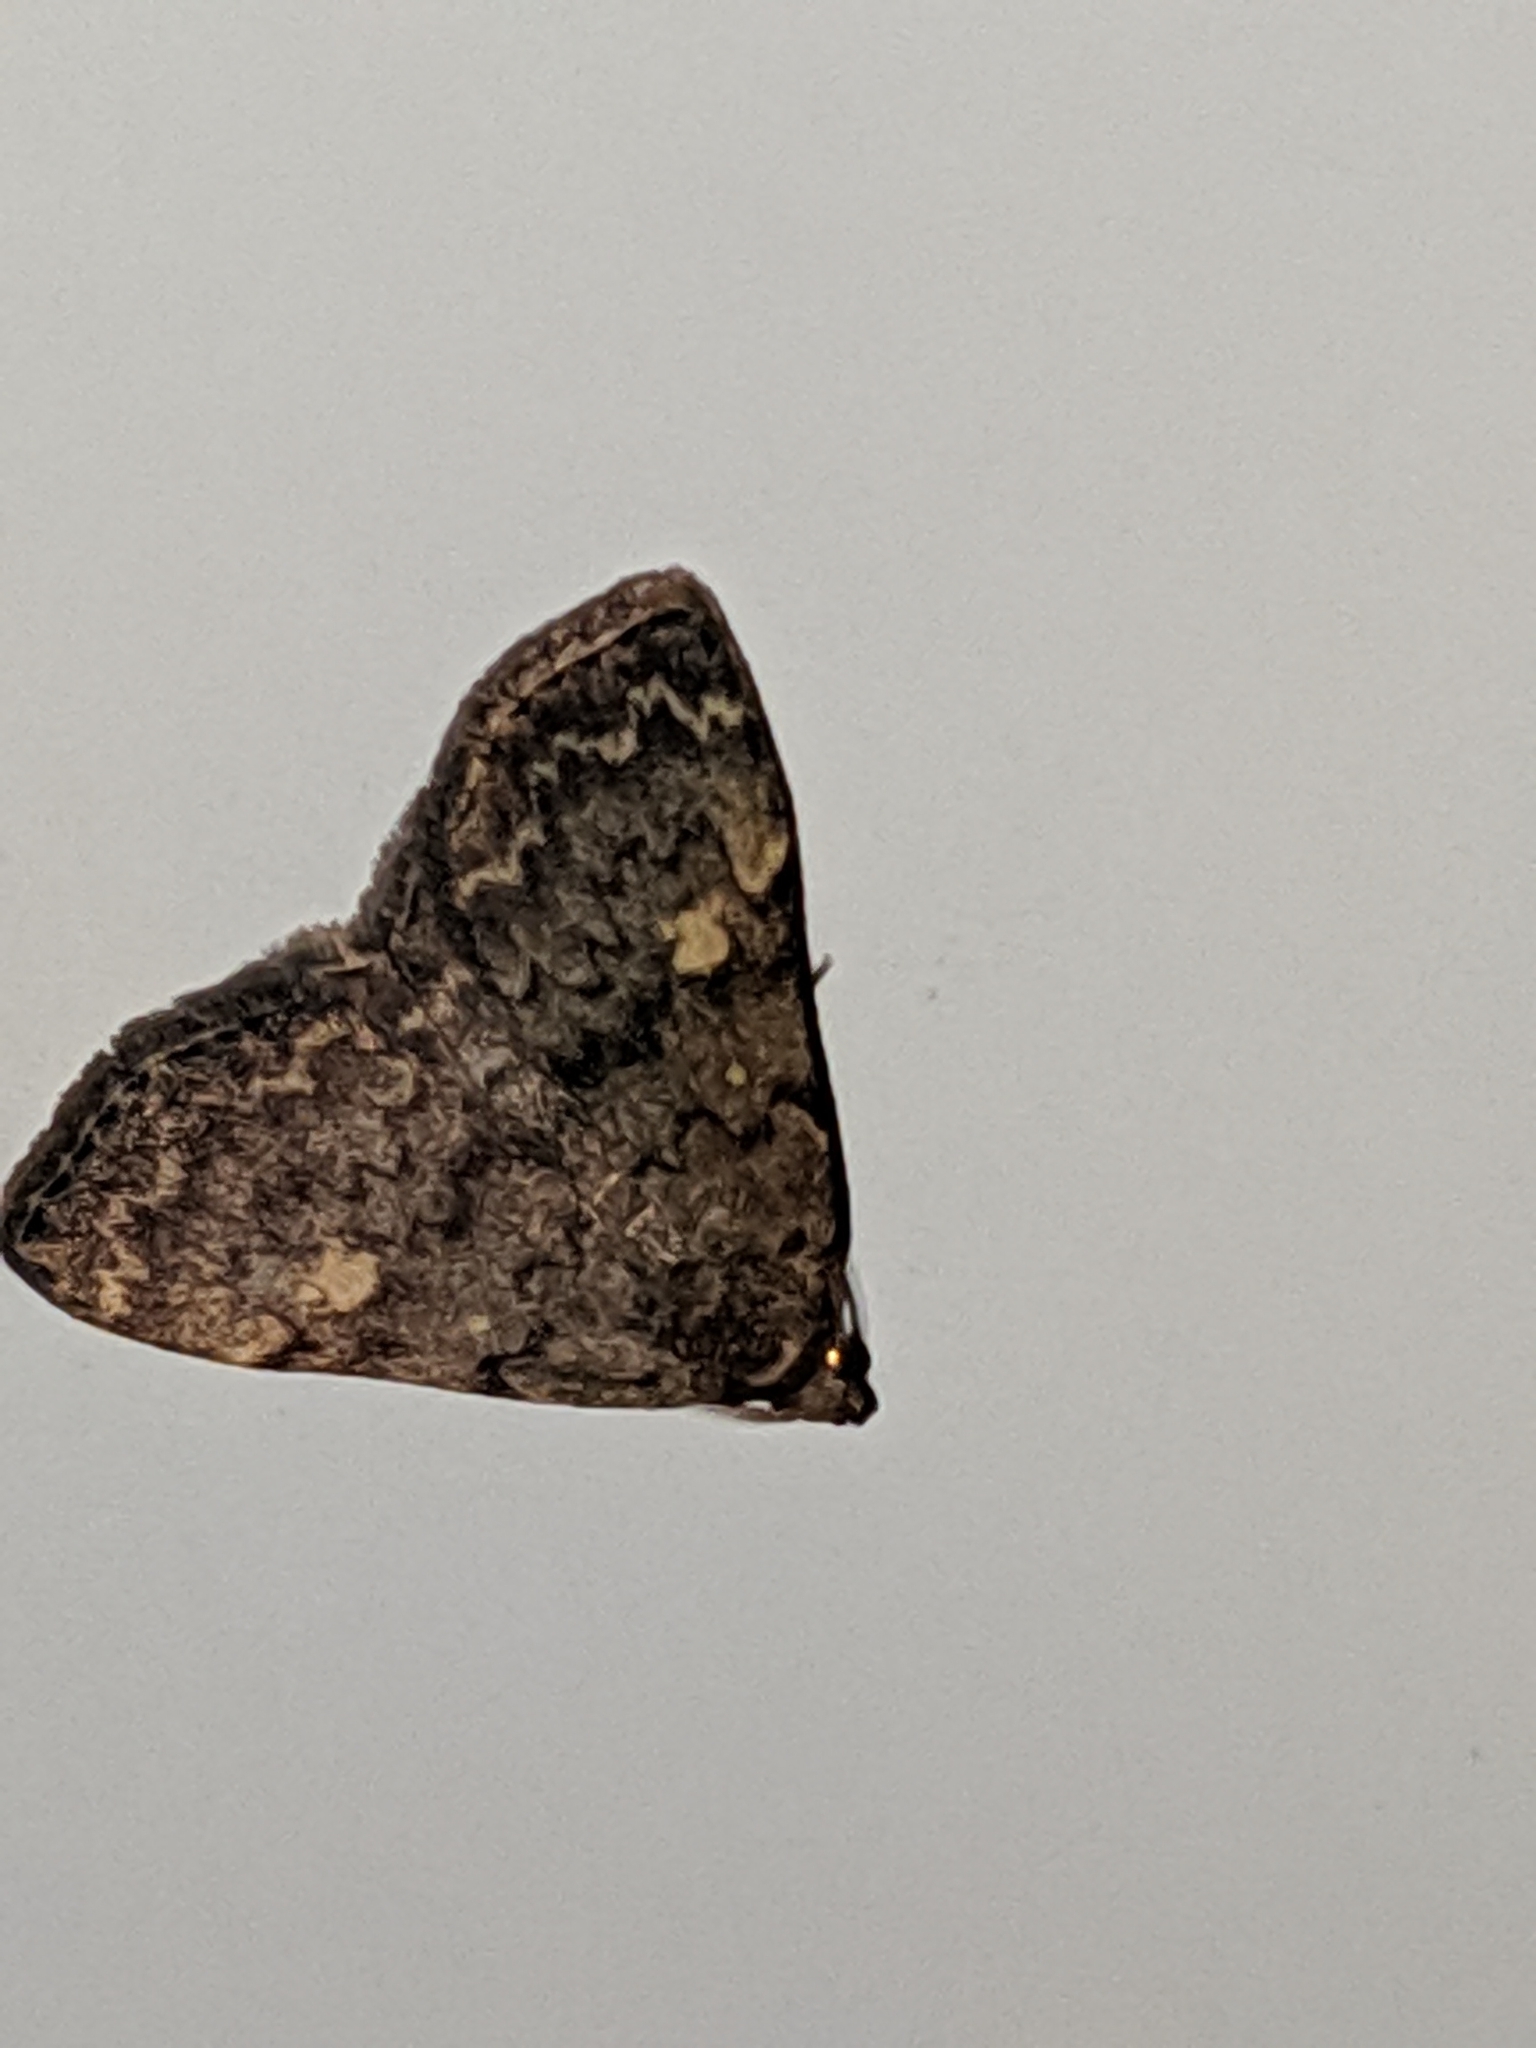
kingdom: Animalia
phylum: Arthropoda
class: Insecta
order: Lepidoptera
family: Erebidae
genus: Idia
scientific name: Idia aemula
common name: Common idia moth
